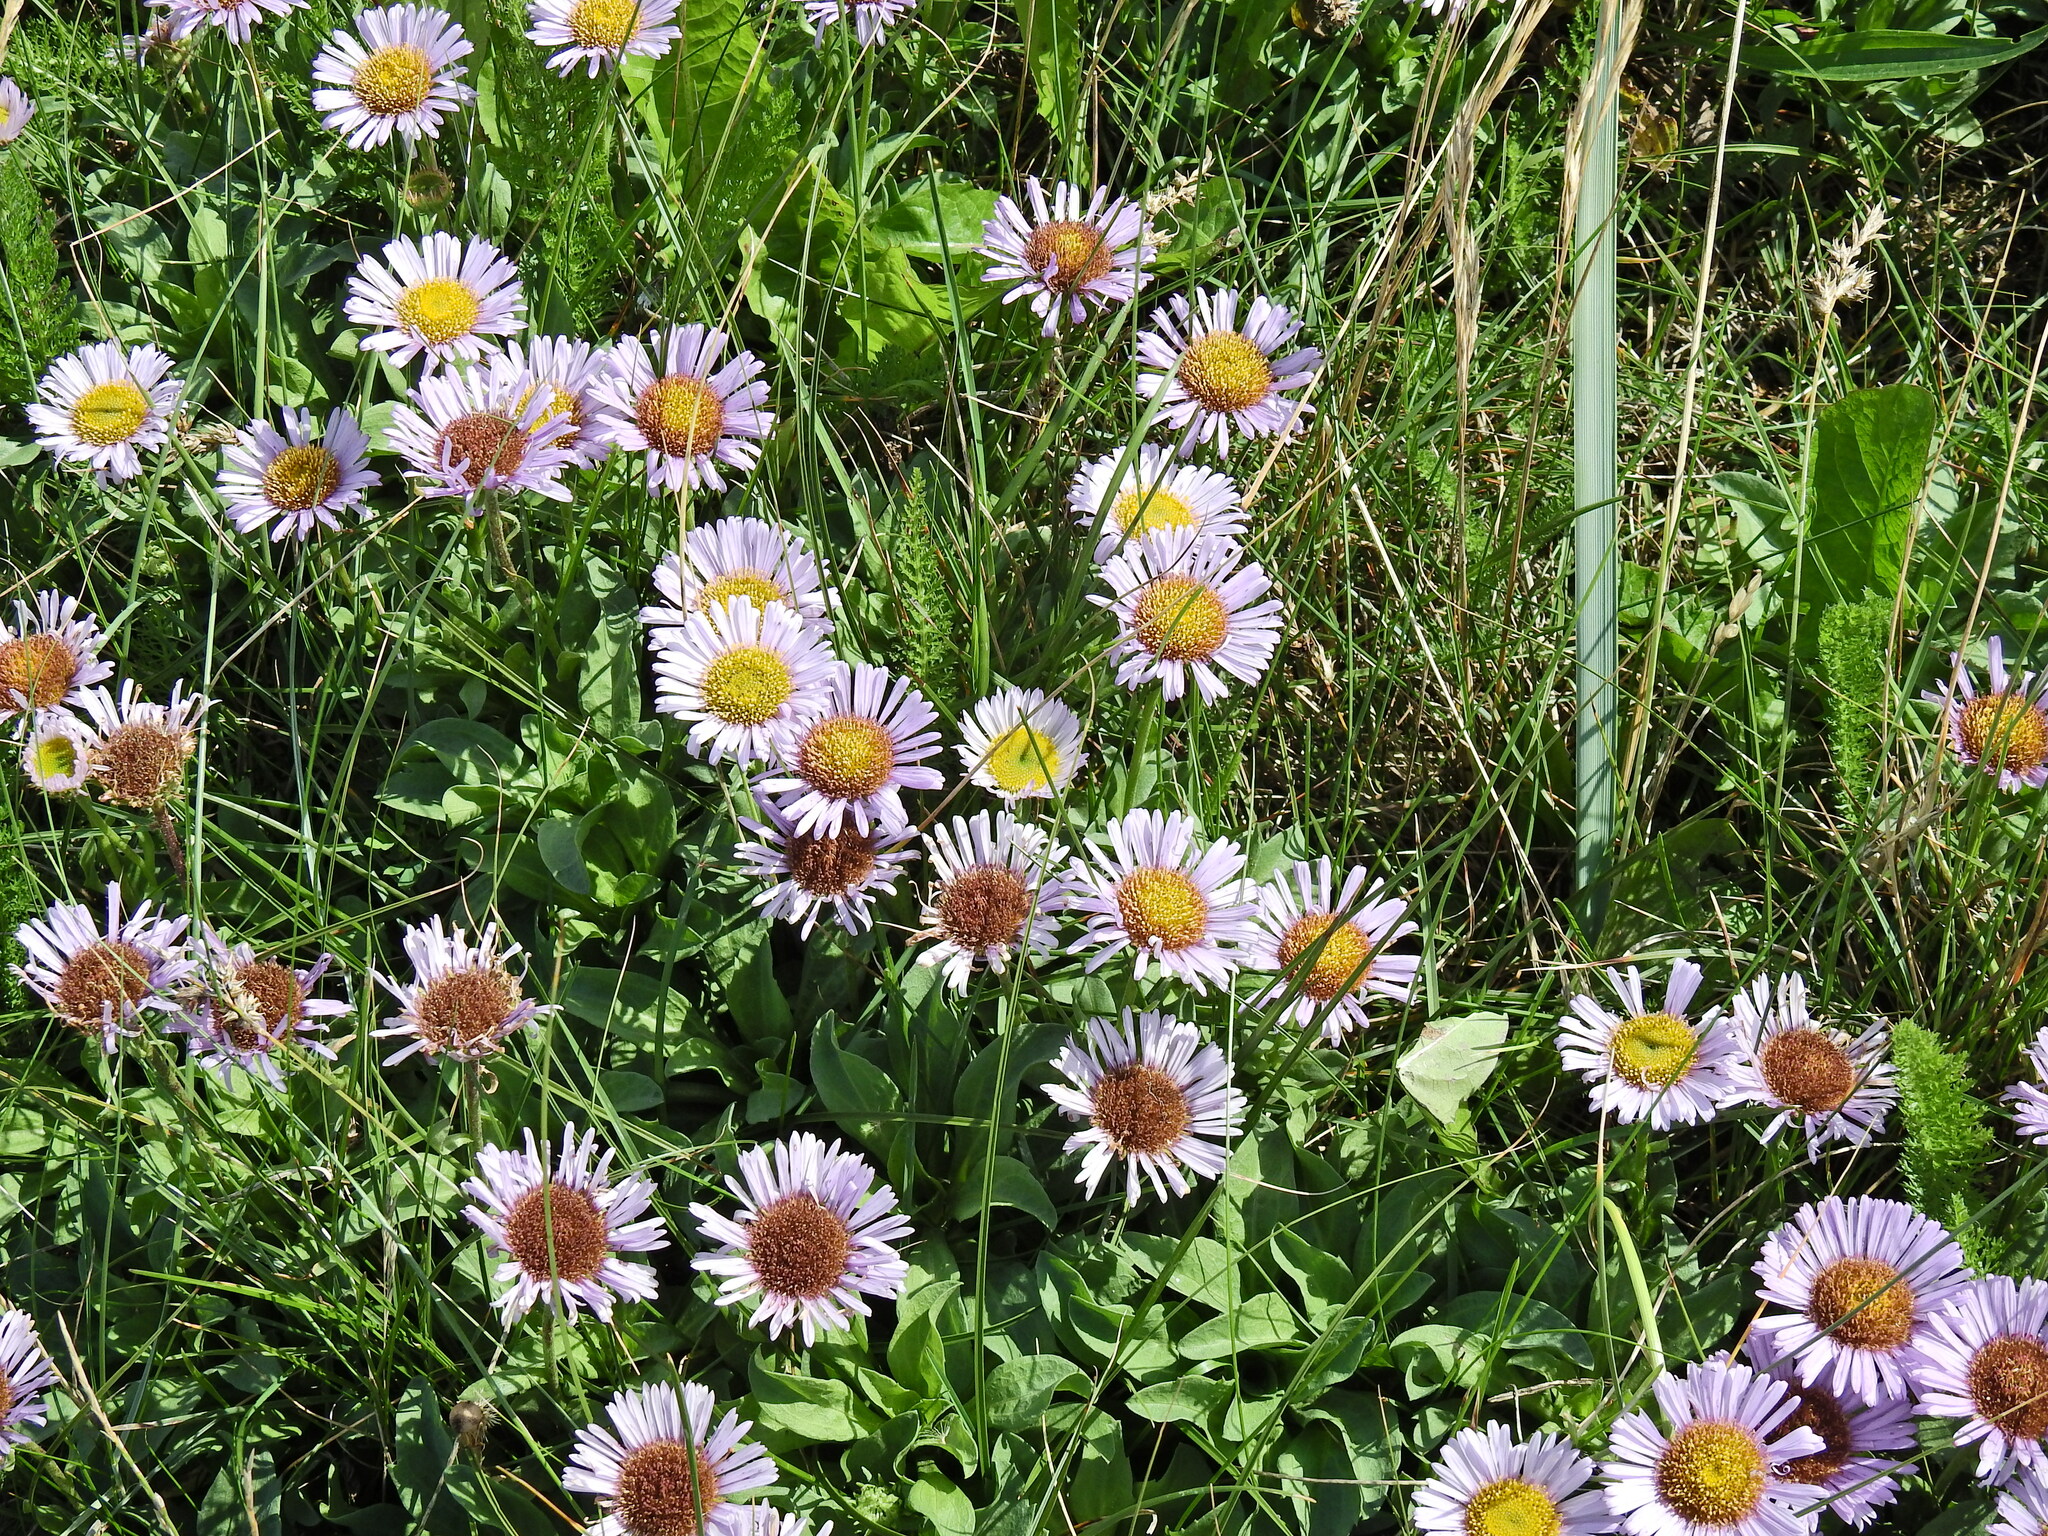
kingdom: Plantae
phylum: Tracheophyta
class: Magnoliopsida
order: Asterales
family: Asteraceae
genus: Erigeron
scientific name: Erigeron glaucus
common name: Seaside daisy
